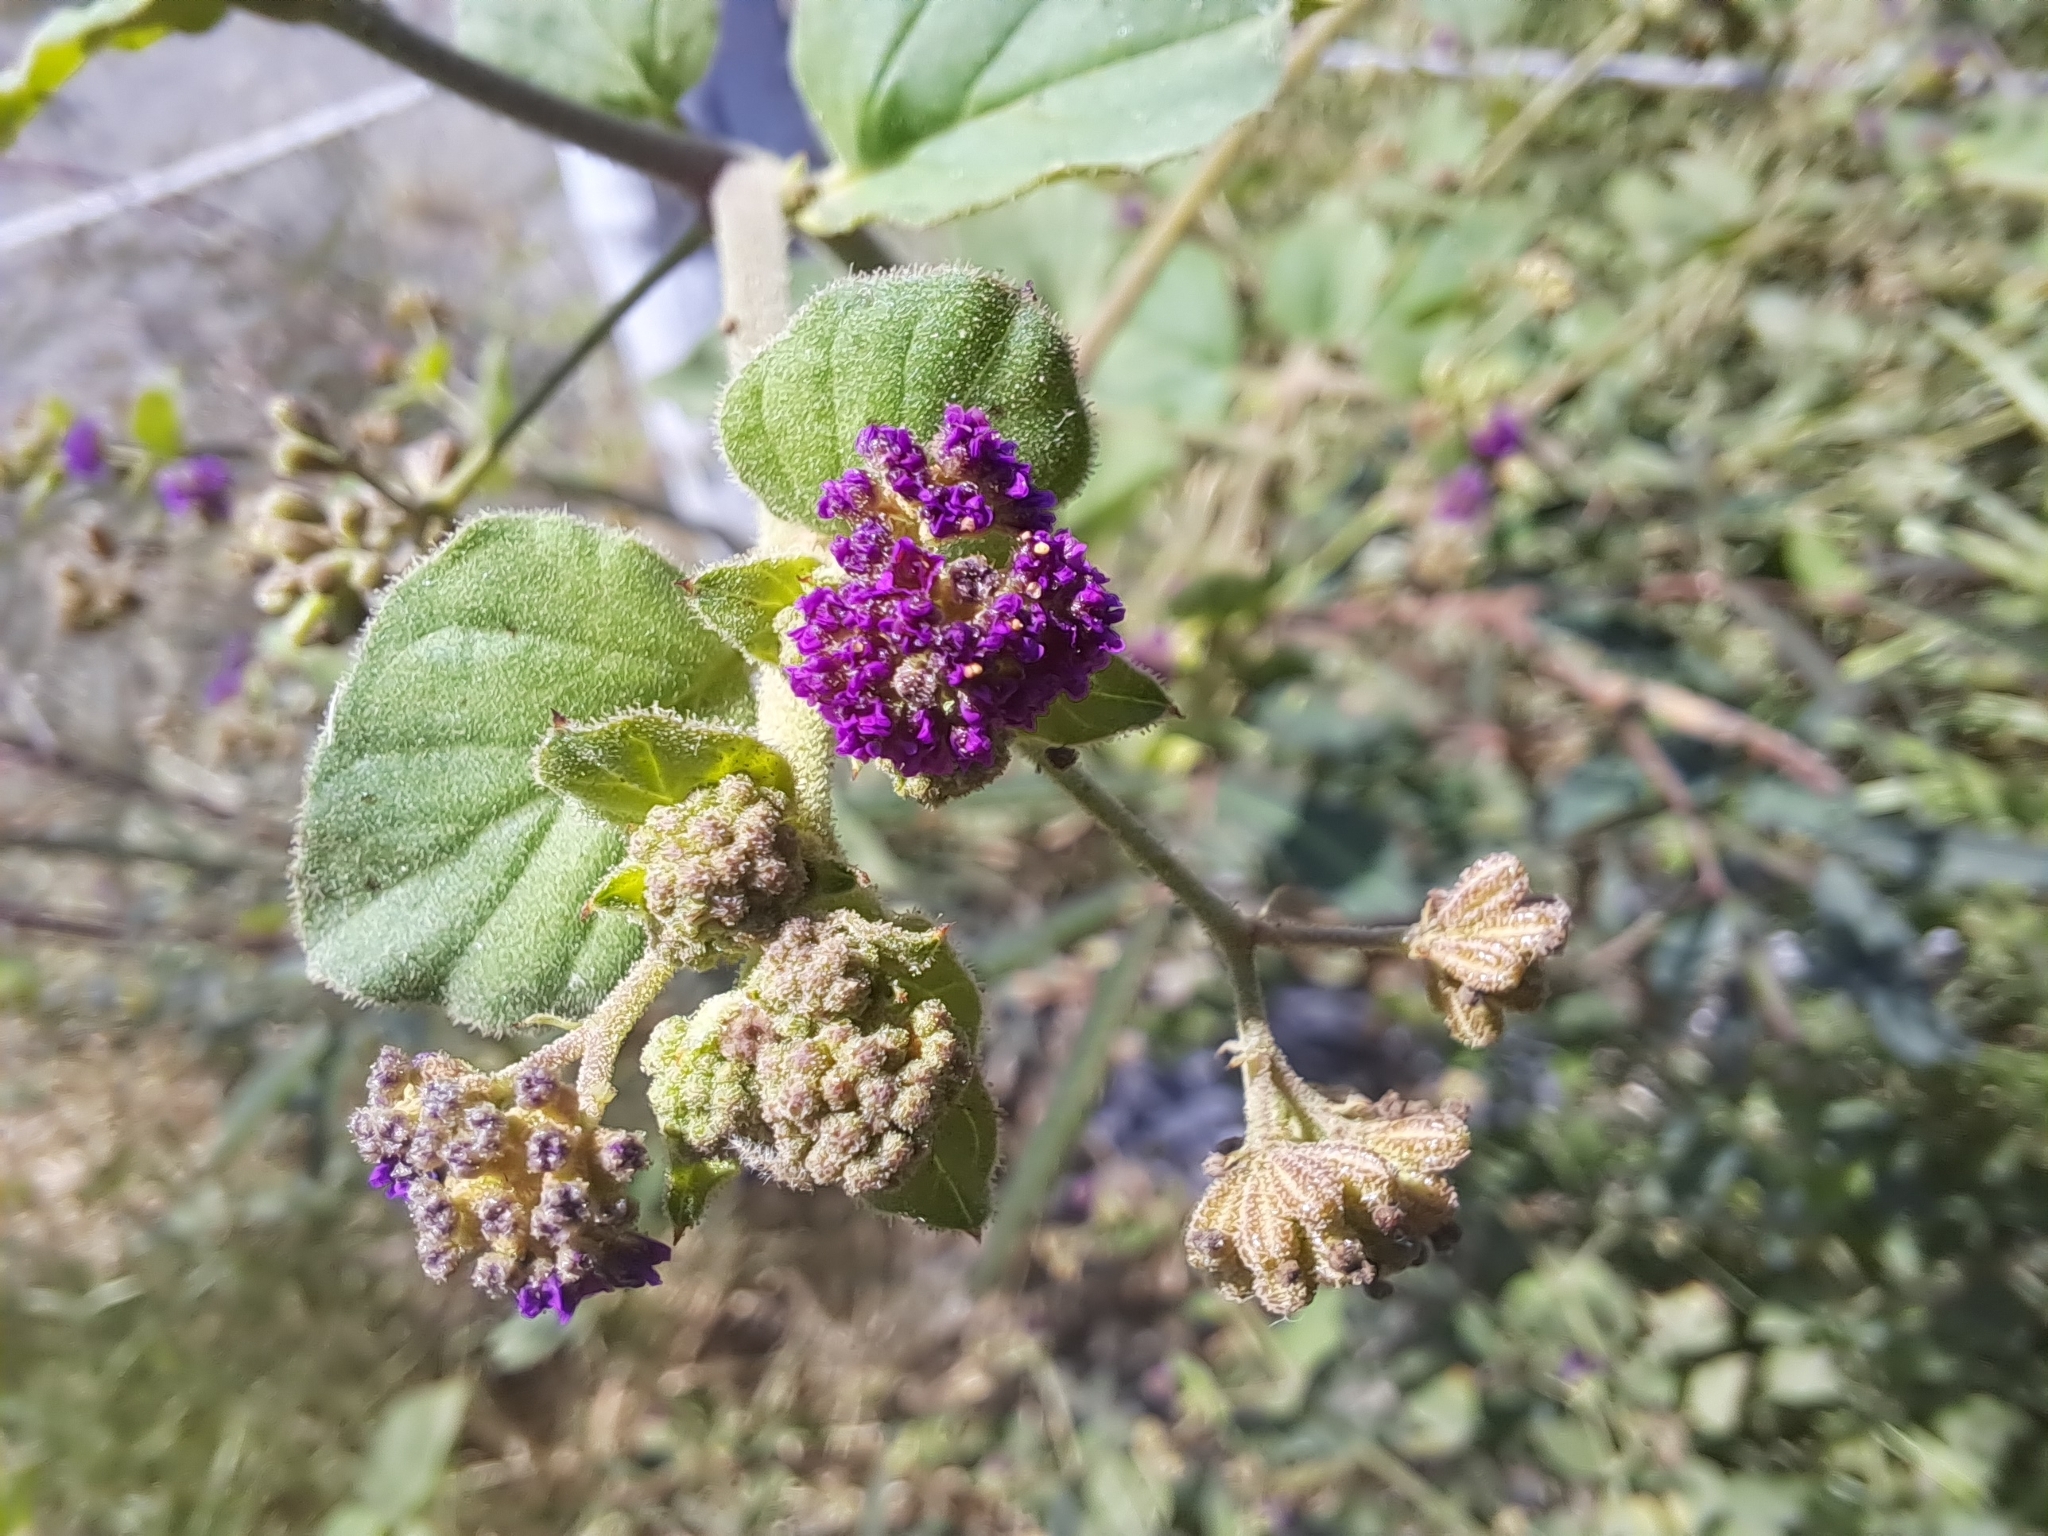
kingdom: Plantae
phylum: Tracheophyta
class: Magnoliopsida
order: Caryophyllales
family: Nyctaginaceae
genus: Boerhavia
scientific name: Boerhavia coccinea
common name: Scarlet spiderling
